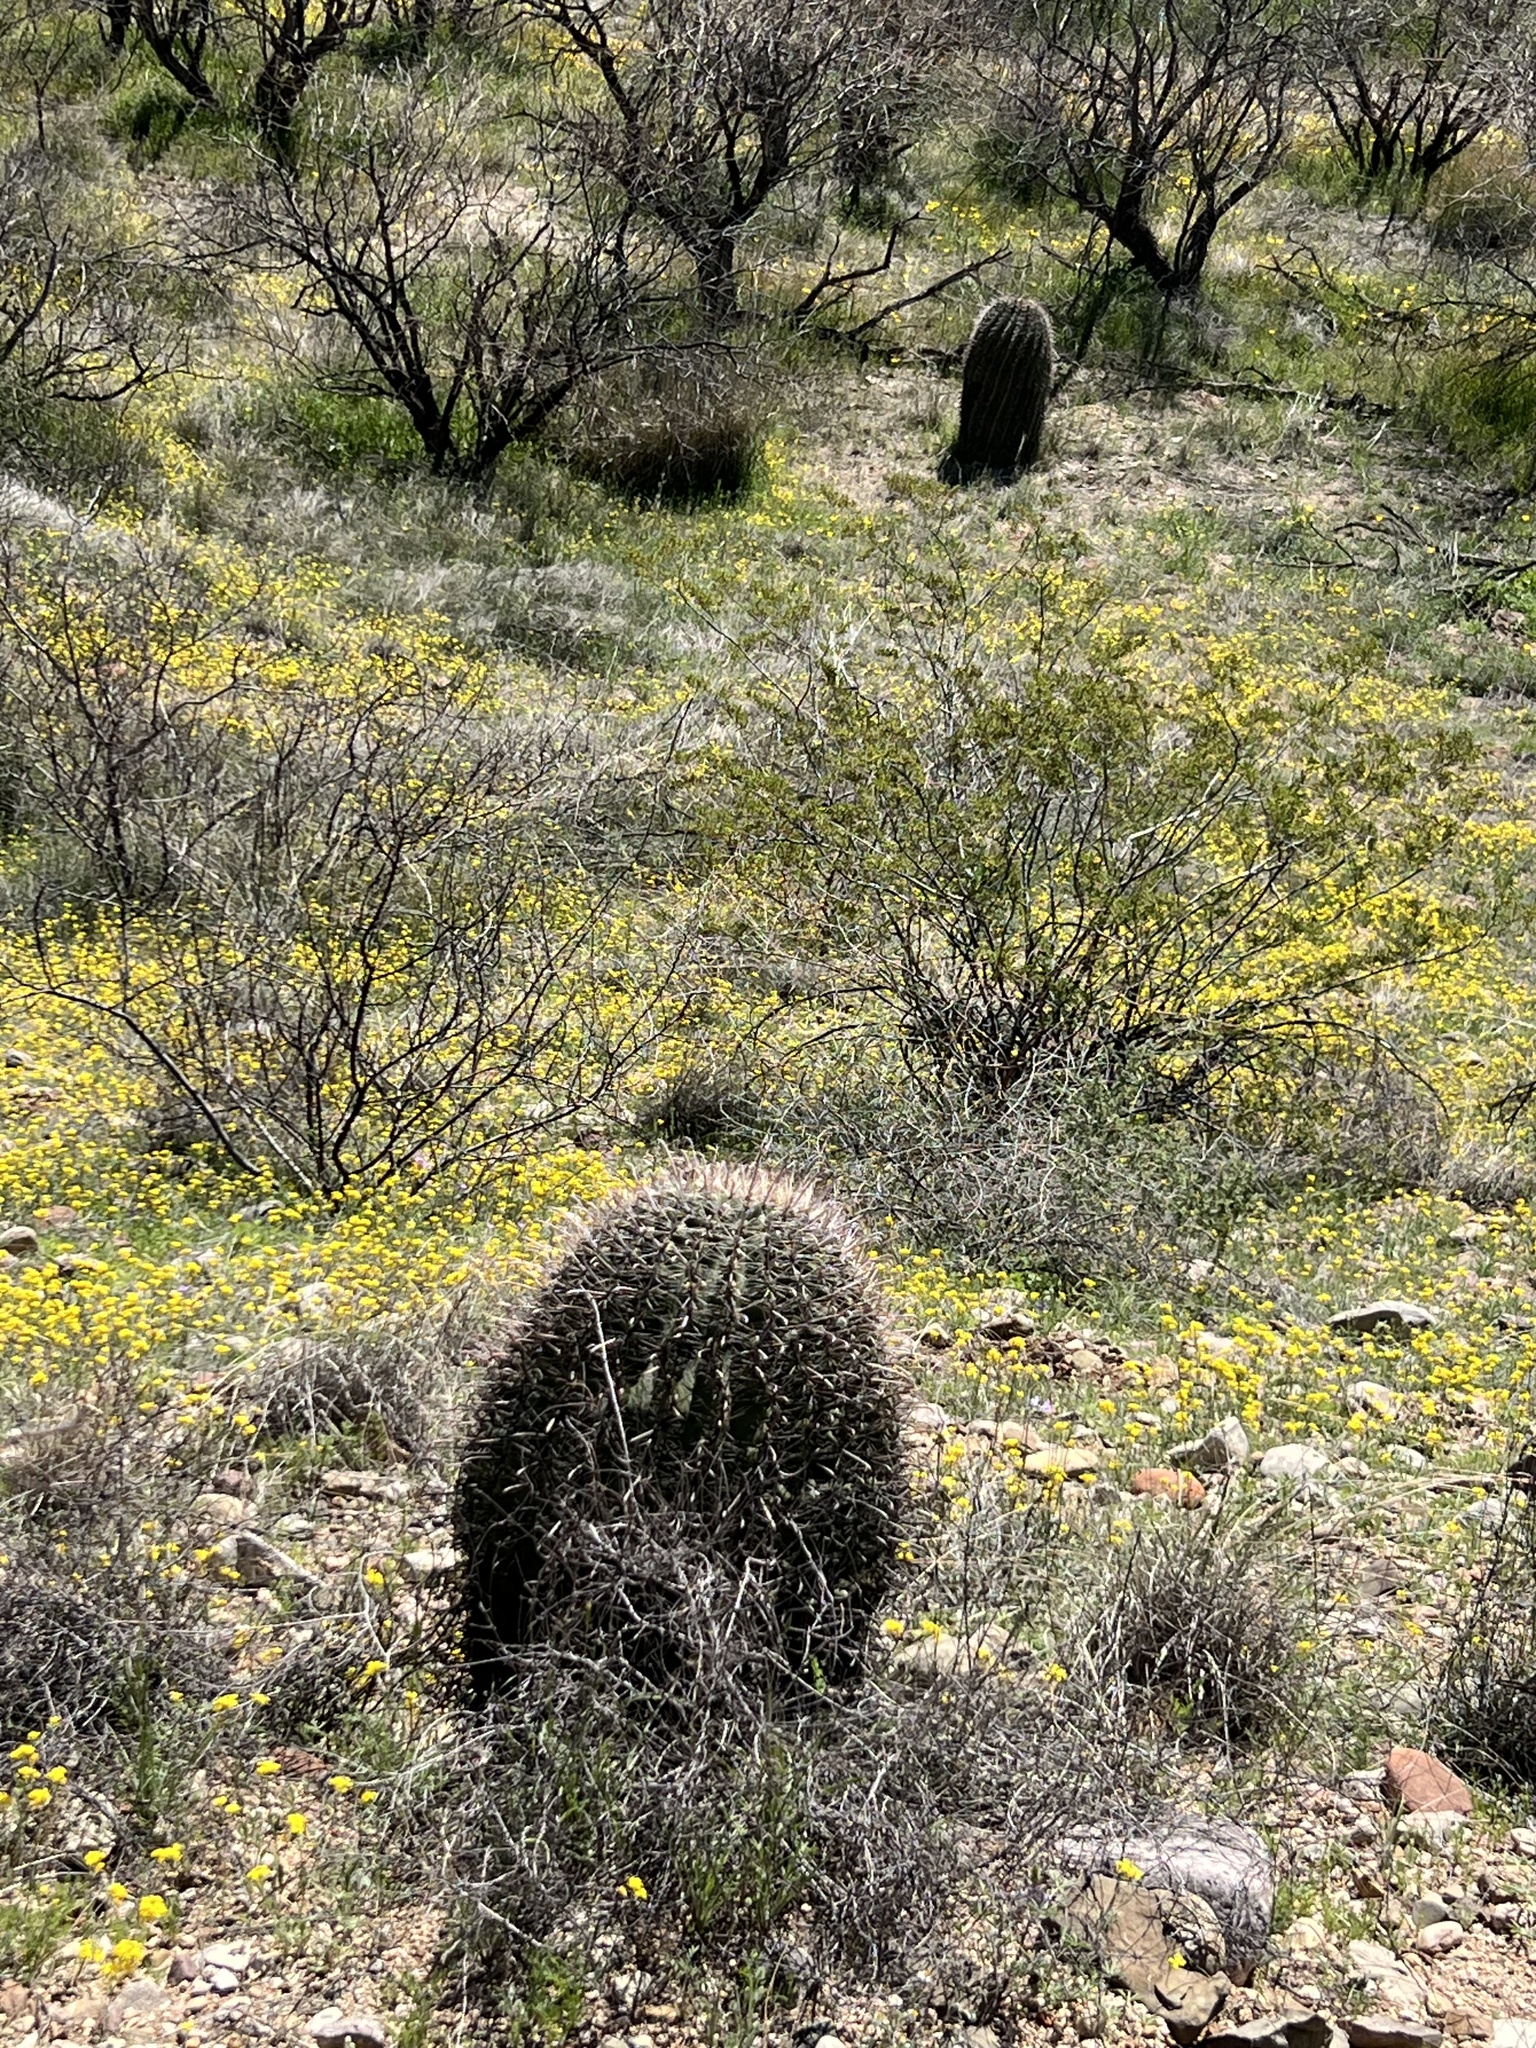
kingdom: Plantae
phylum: Tracheophyta
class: Magnoliopsida
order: Caryophyllales
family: Cactaceae
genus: Ferocactus
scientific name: Ferocactus wislizeni
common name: Candy barrel cactus
